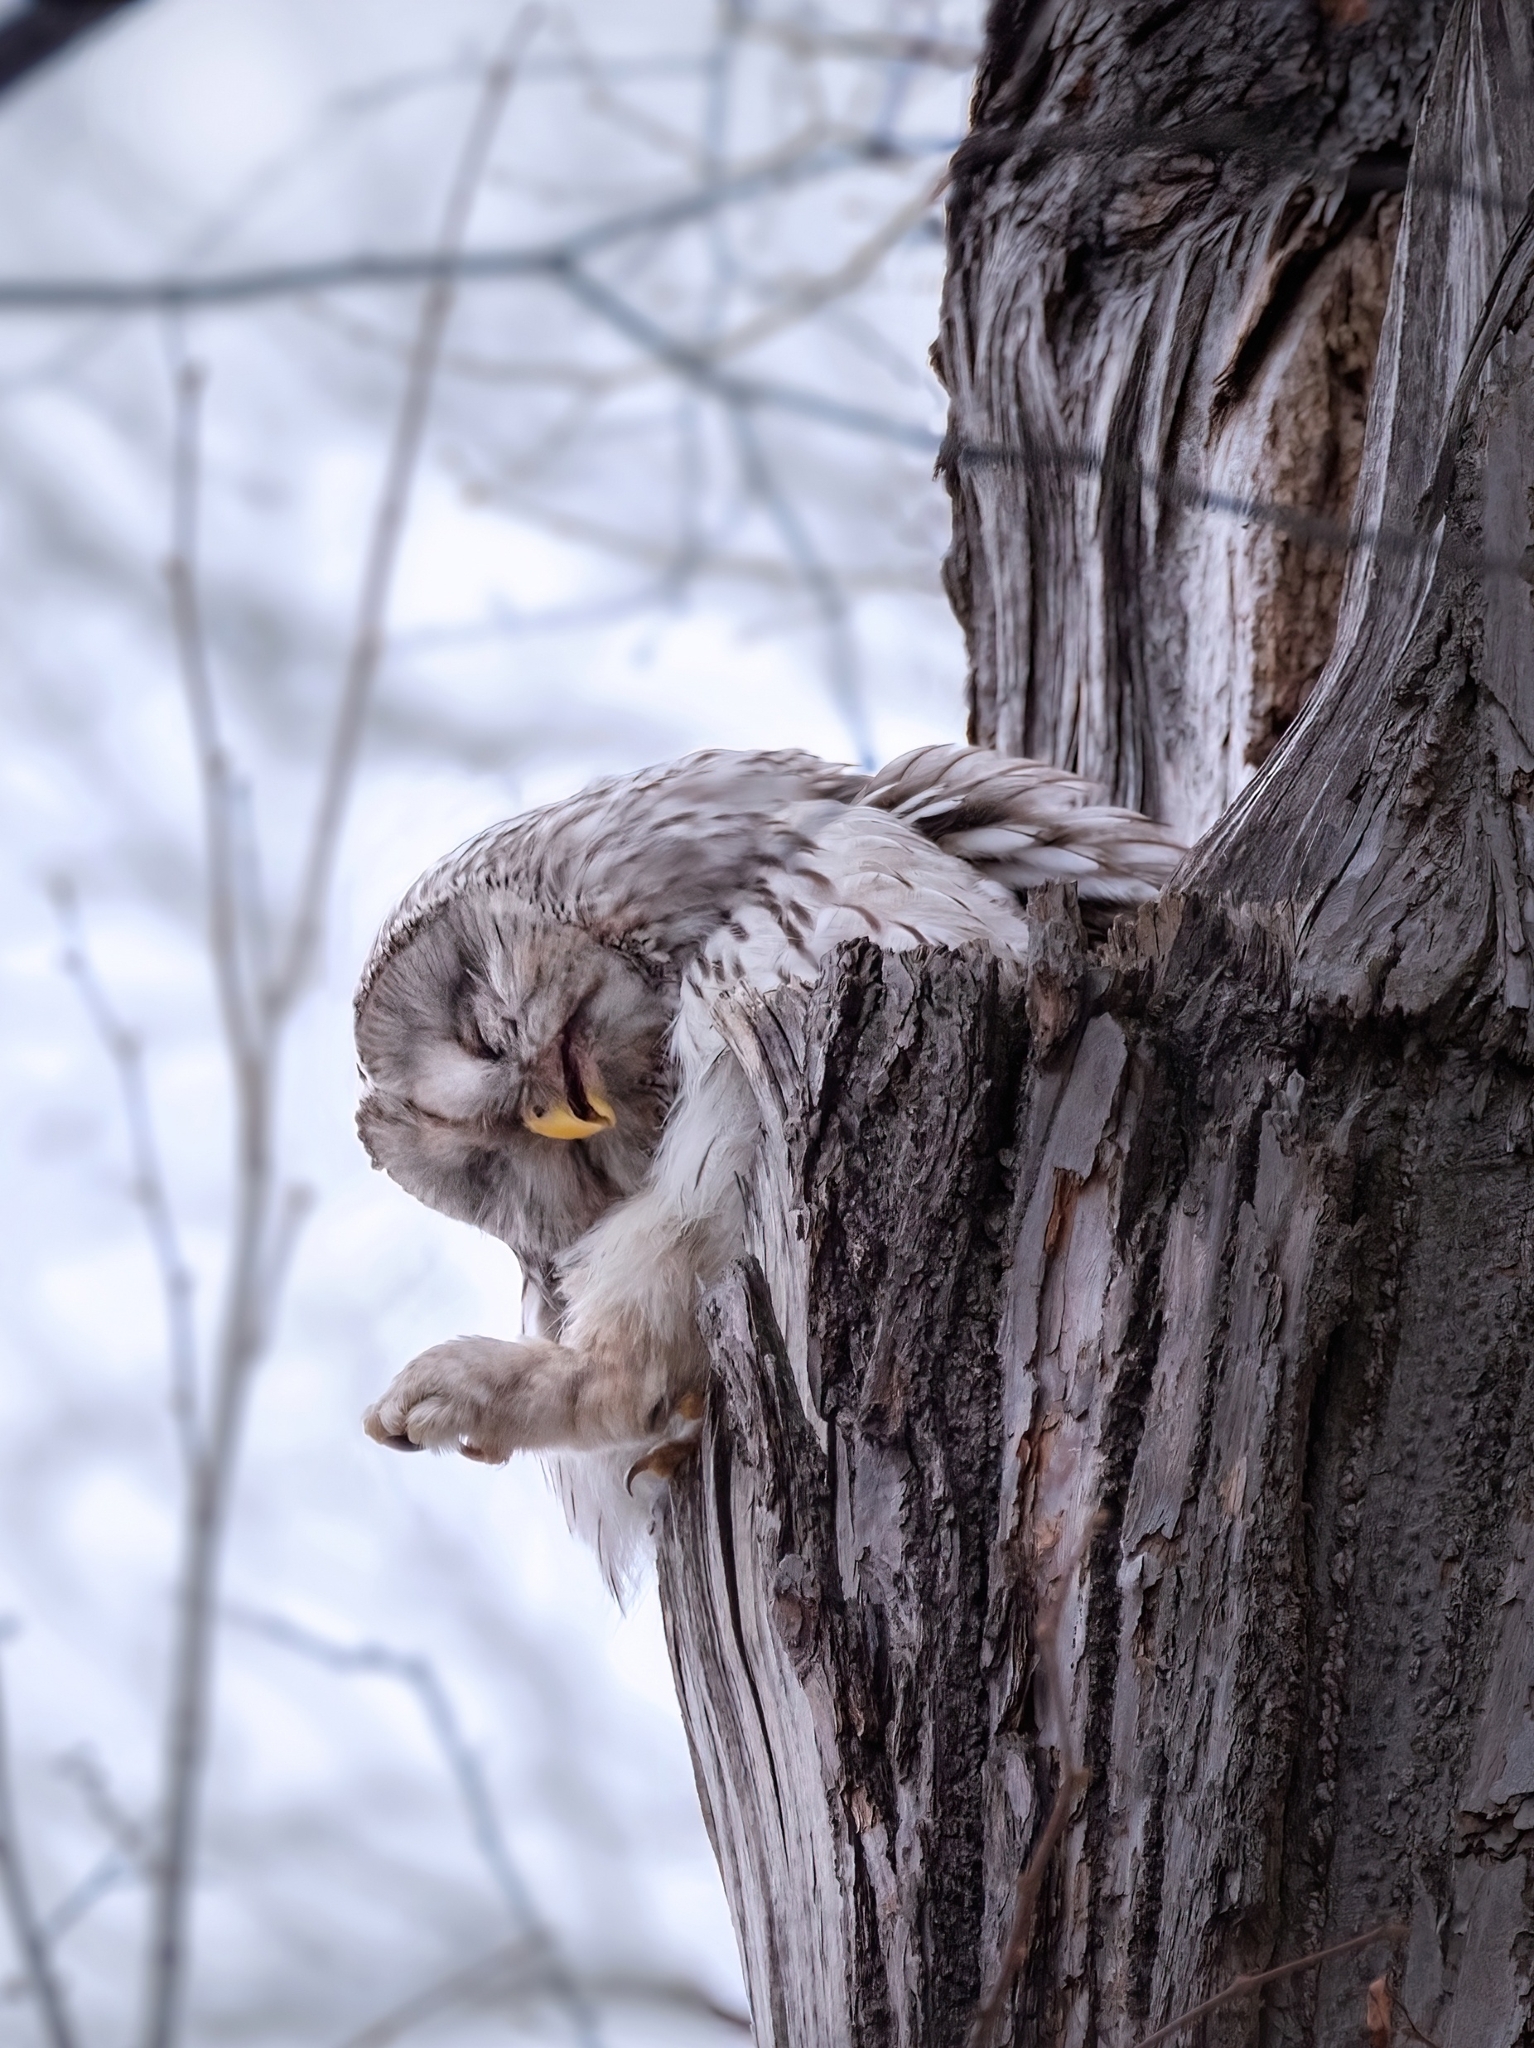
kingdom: Animalia
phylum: Chordata
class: Aves
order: Strigiformes
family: Strigidae
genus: Strix
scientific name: Strix uralensis
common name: Ural owl
